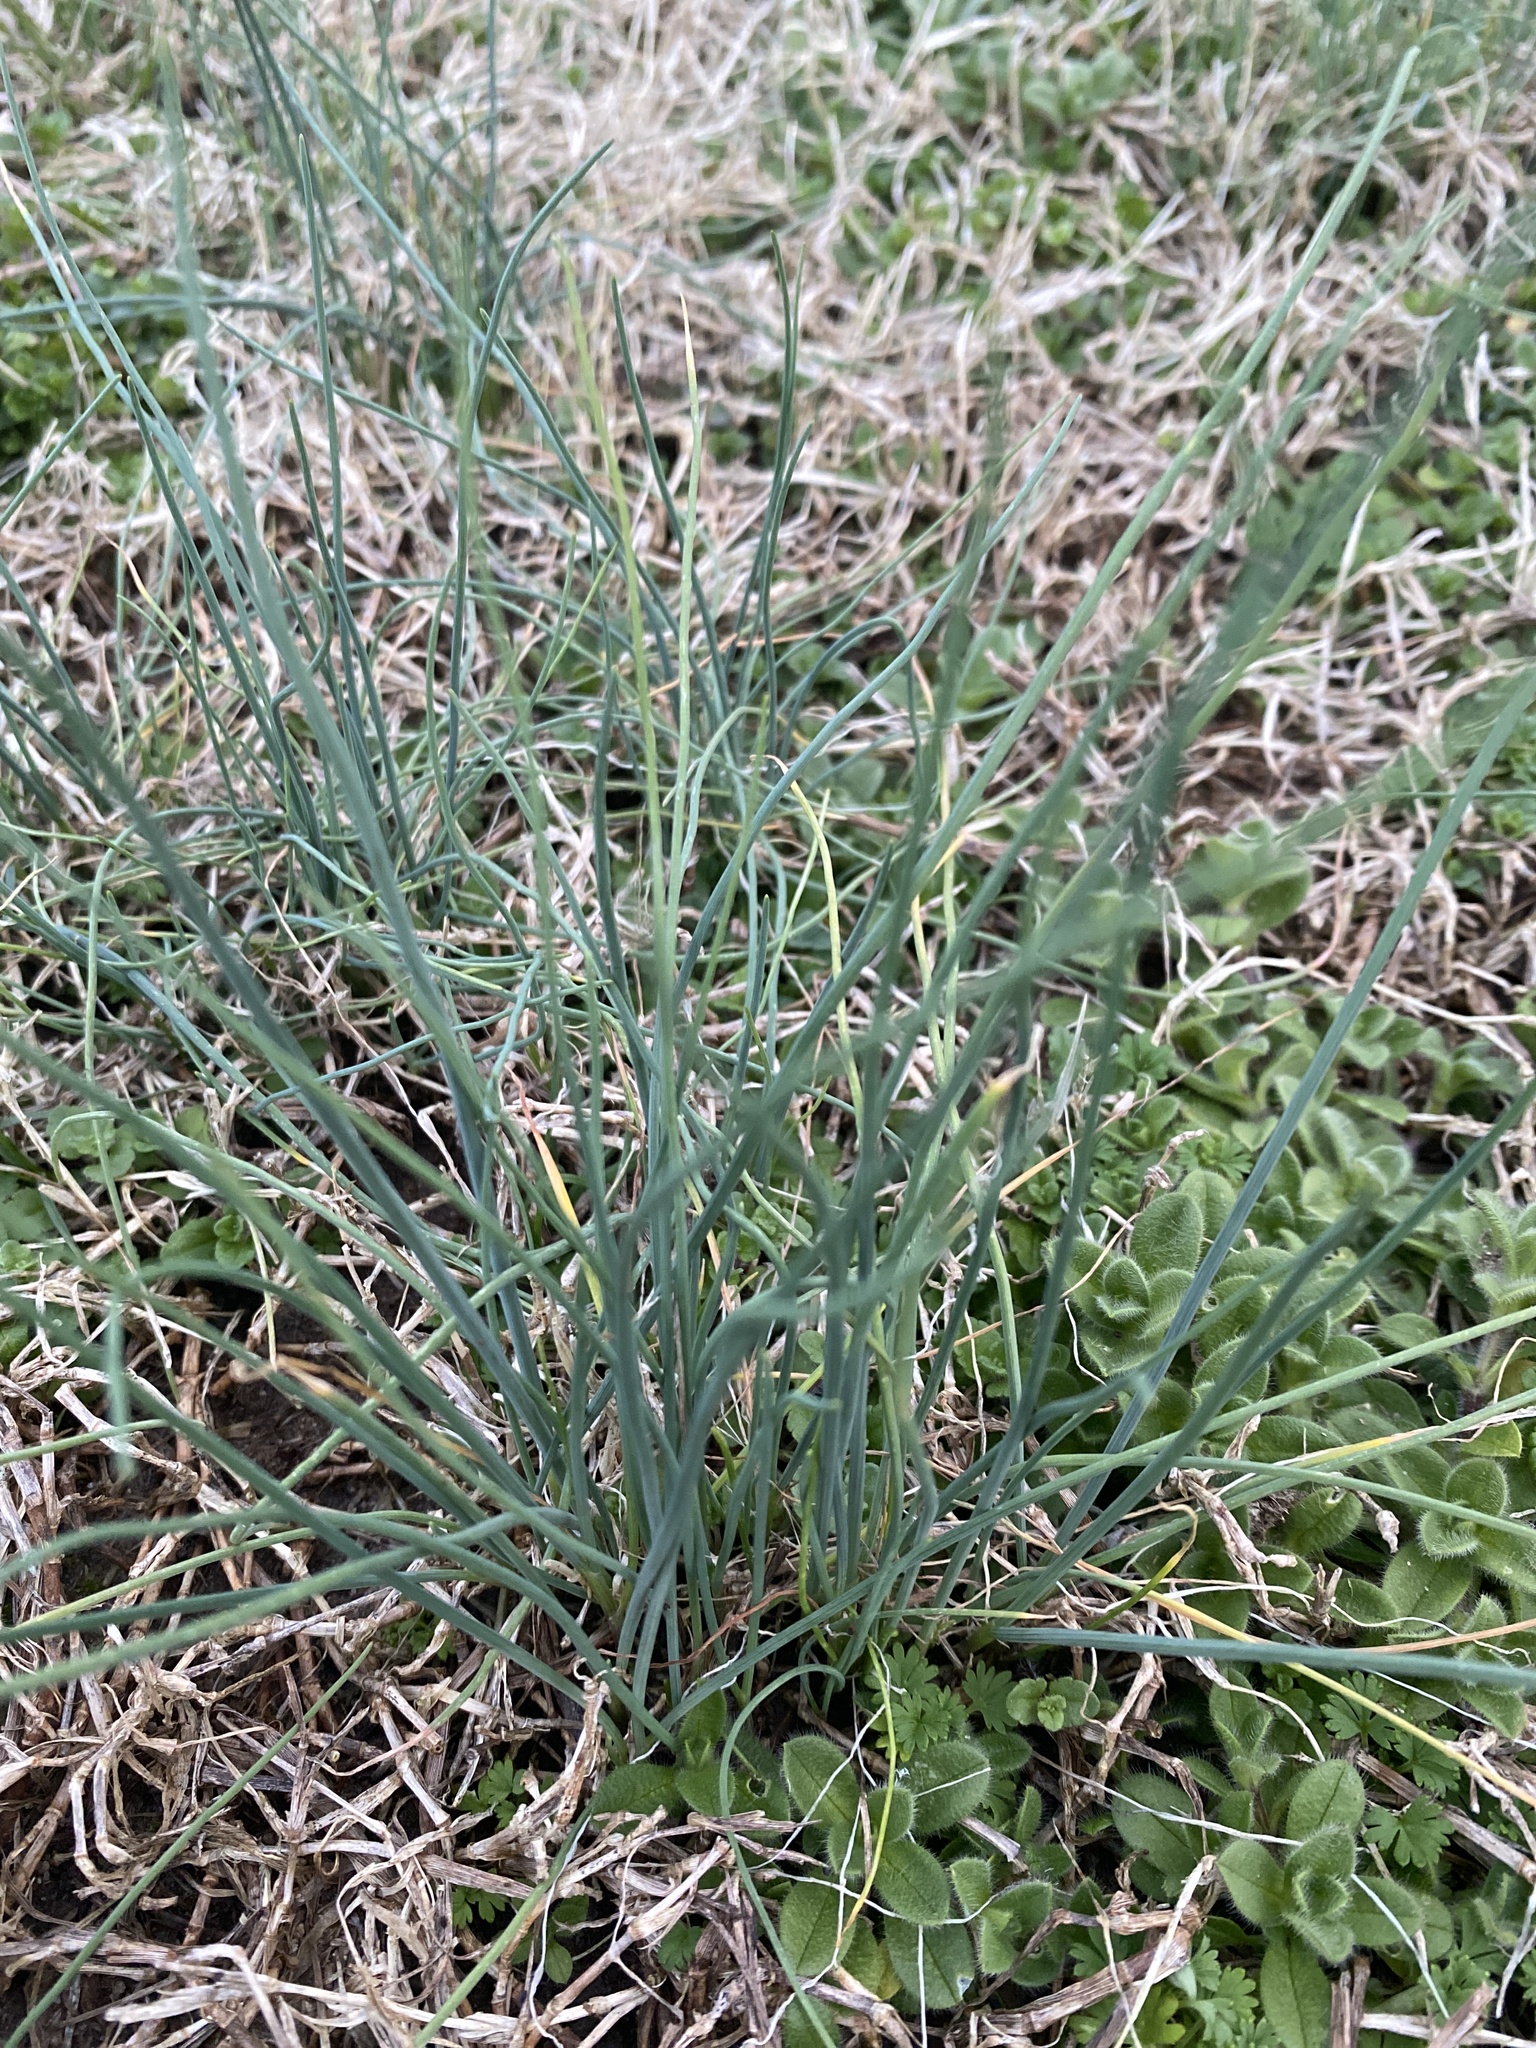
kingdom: Plantae
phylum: Tracheophyta
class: Liliopsida
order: Asparagales
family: Amaryllidaceae
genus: Allium
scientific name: Allium vineale
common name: Crow garlic
